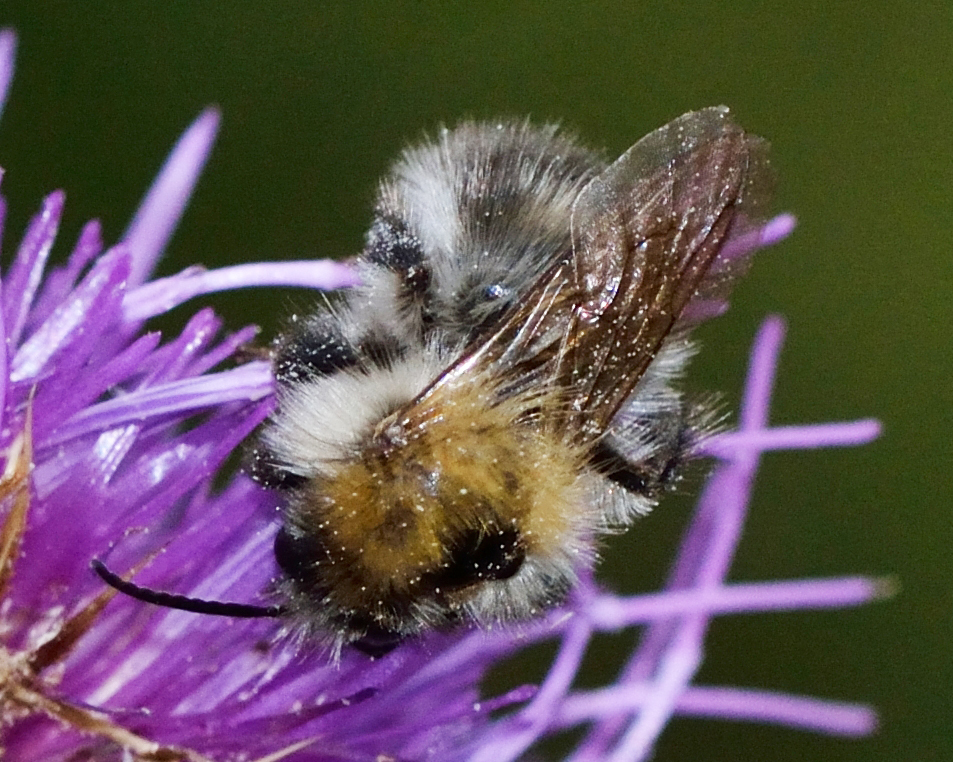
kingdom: Animalia
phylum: Arthropoda
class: Insecta
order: Hymenoptera
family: Apidae
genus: Bombus
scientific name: Bombus pascuorum
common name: Common carder bee
